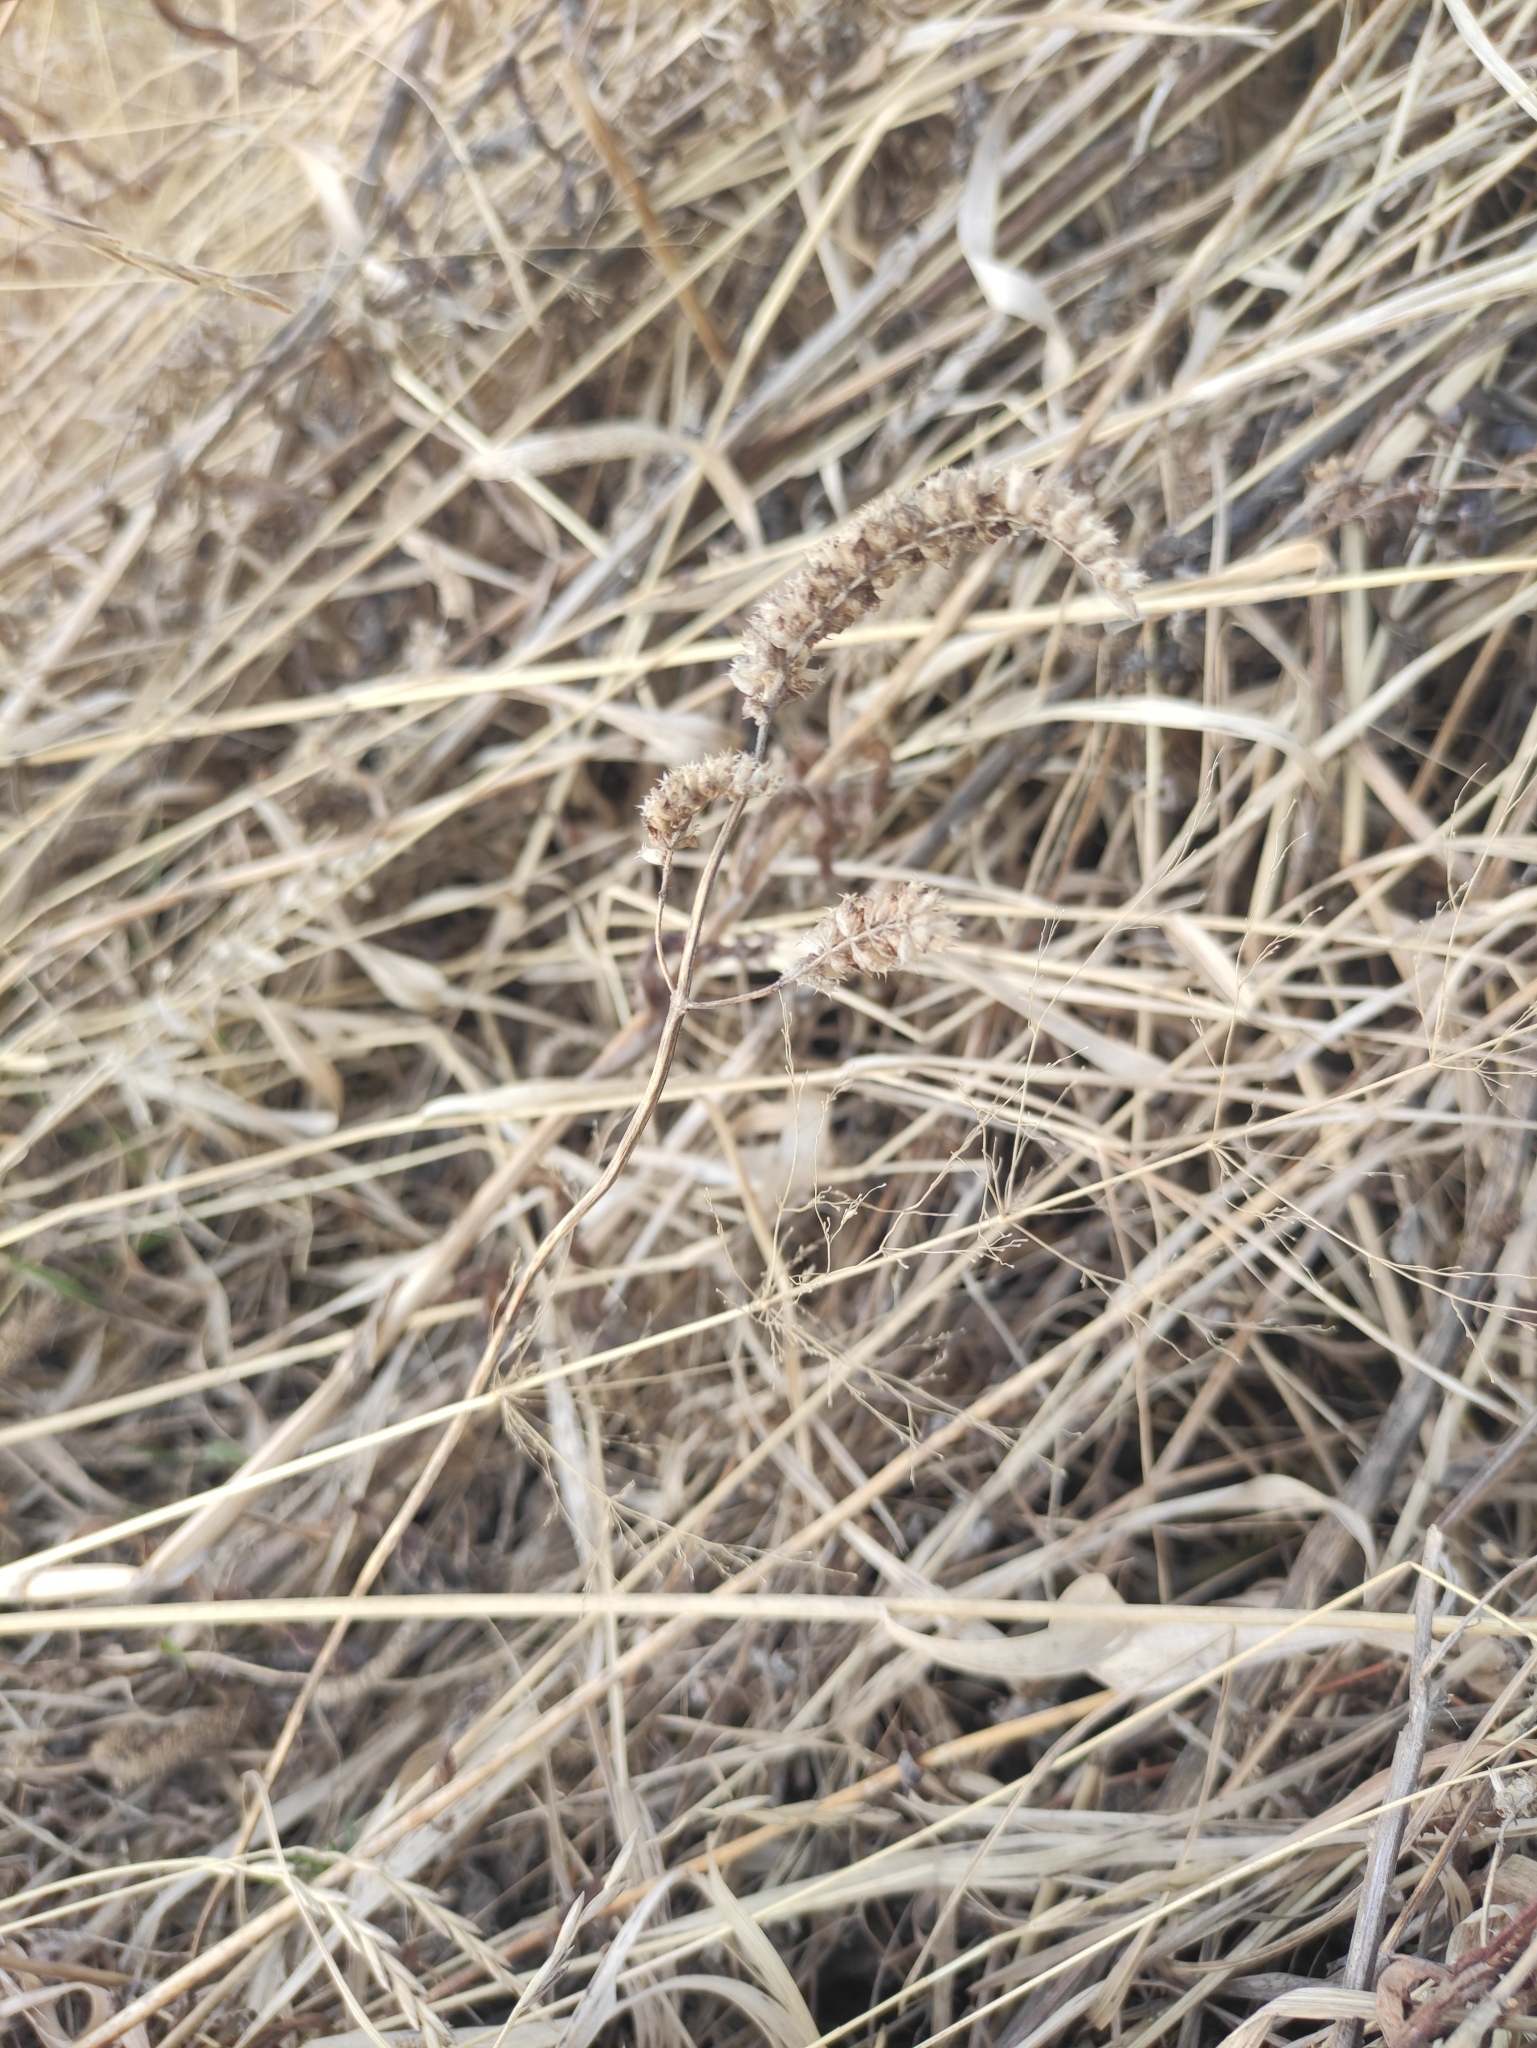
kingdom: Plantae
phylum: Tracheophyta
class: Magnoliopsida
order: Lamiales
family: Lamiaceae
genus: Elsholtzia
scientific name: Elsholtzia ciliata
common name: Ciliate elsholtzia
